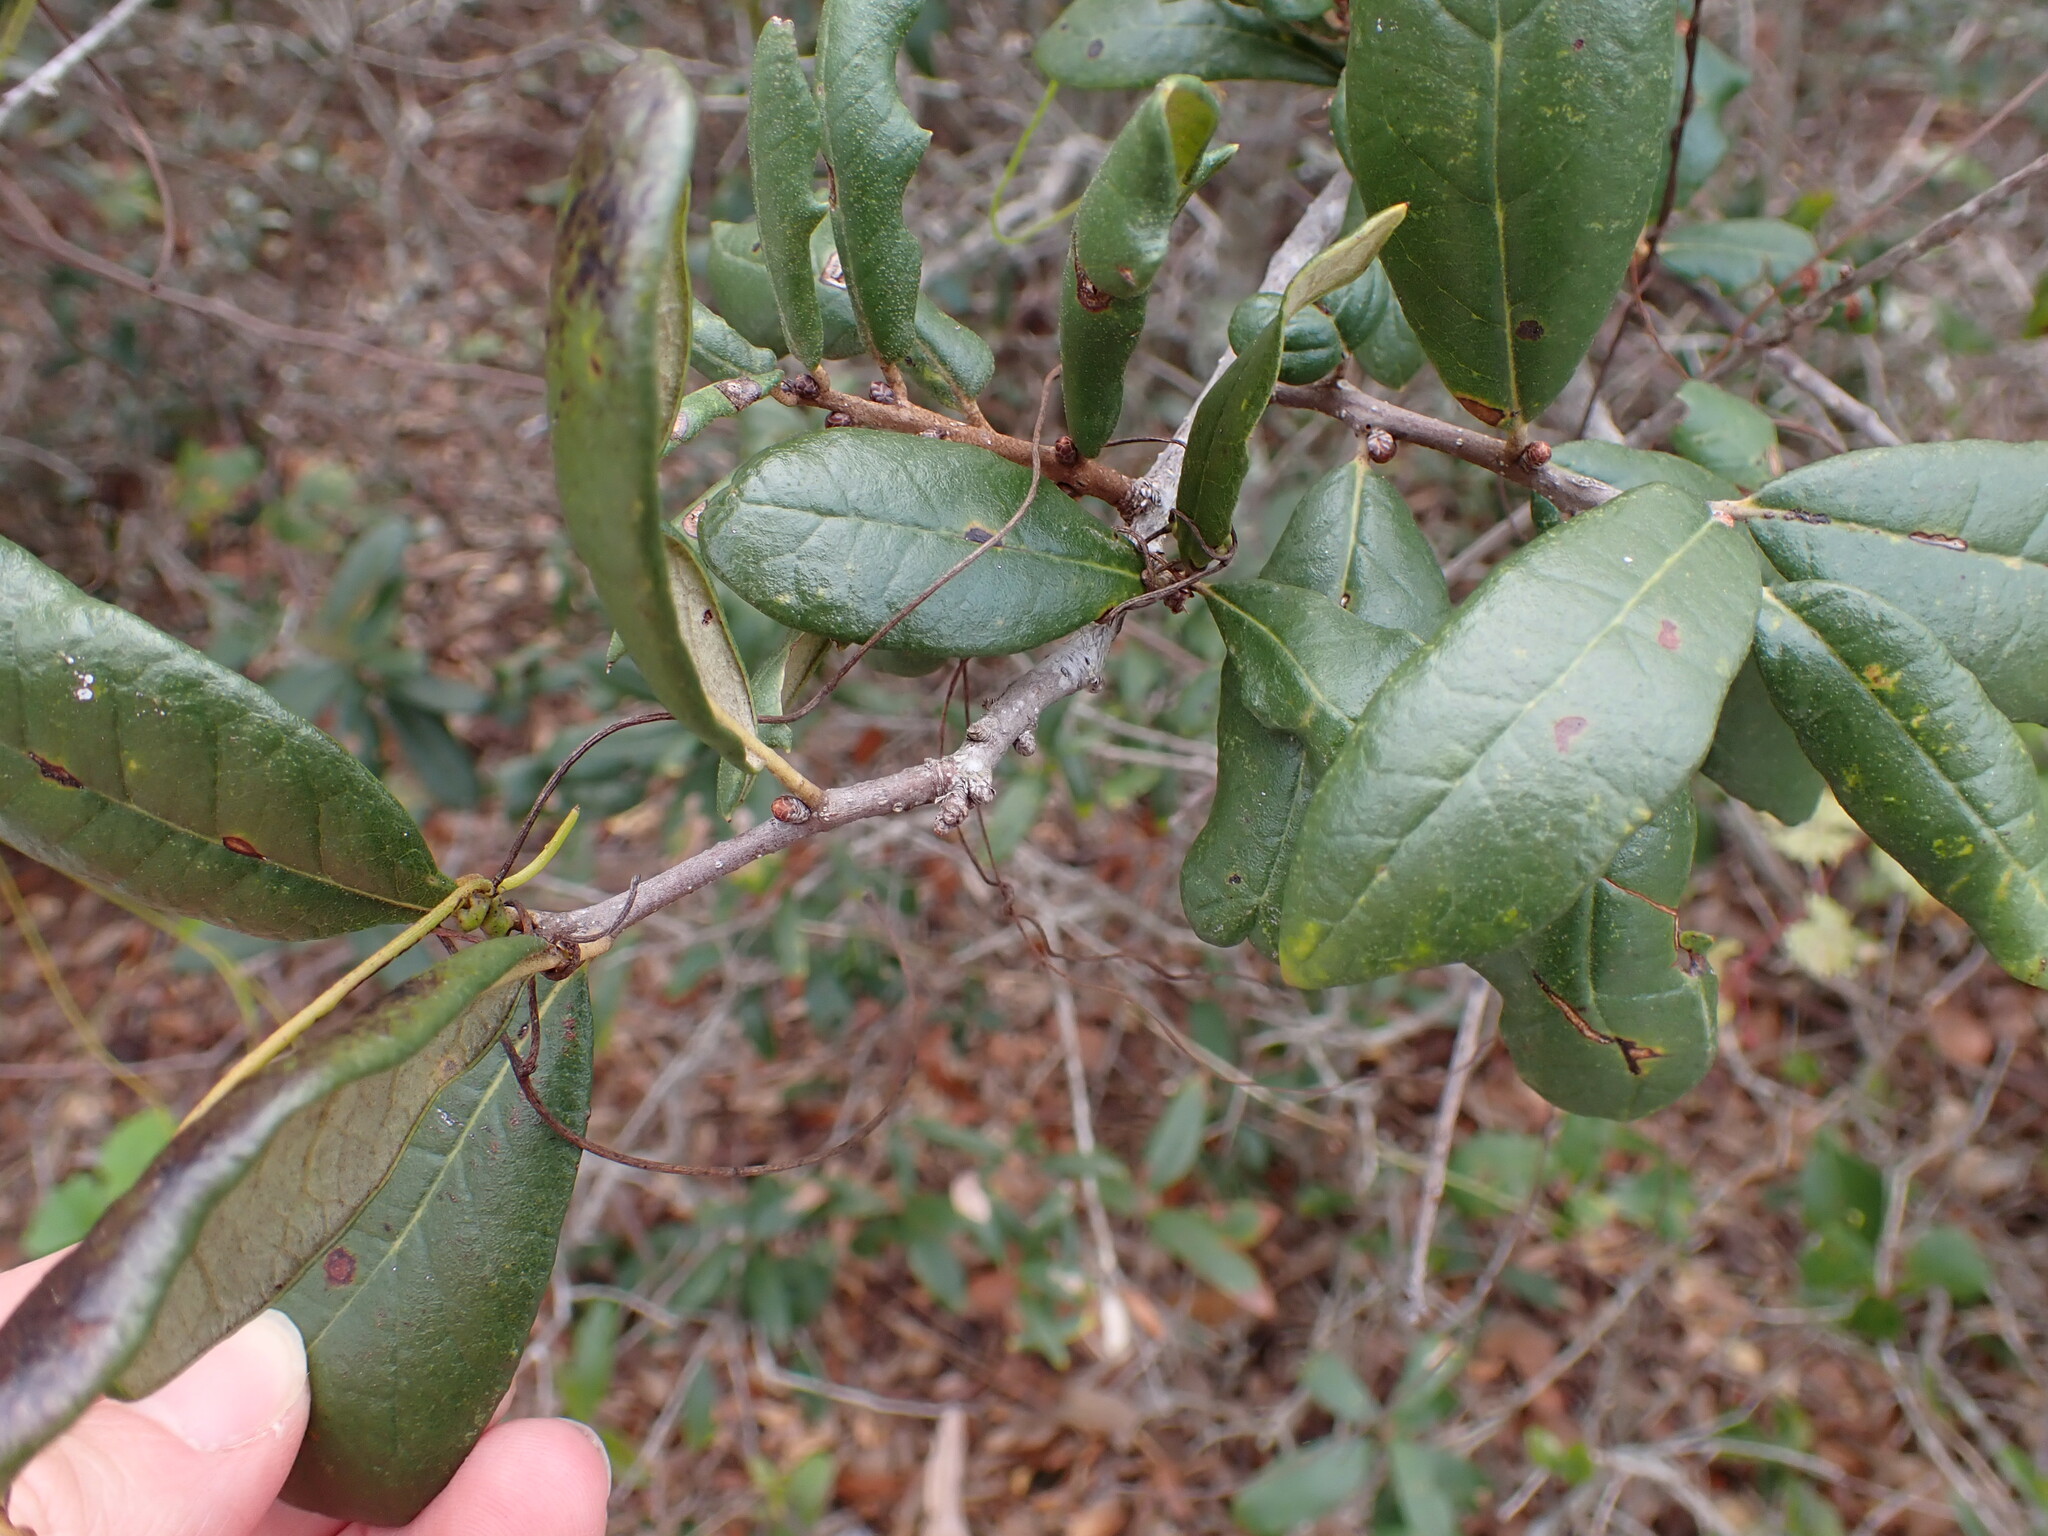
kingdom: Plantae
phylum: Tracheophyta
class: Magnoliopsida
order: Fagales
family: Fagaceae
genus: Quercus
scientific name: Quercus geminata
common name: Sand live oak
